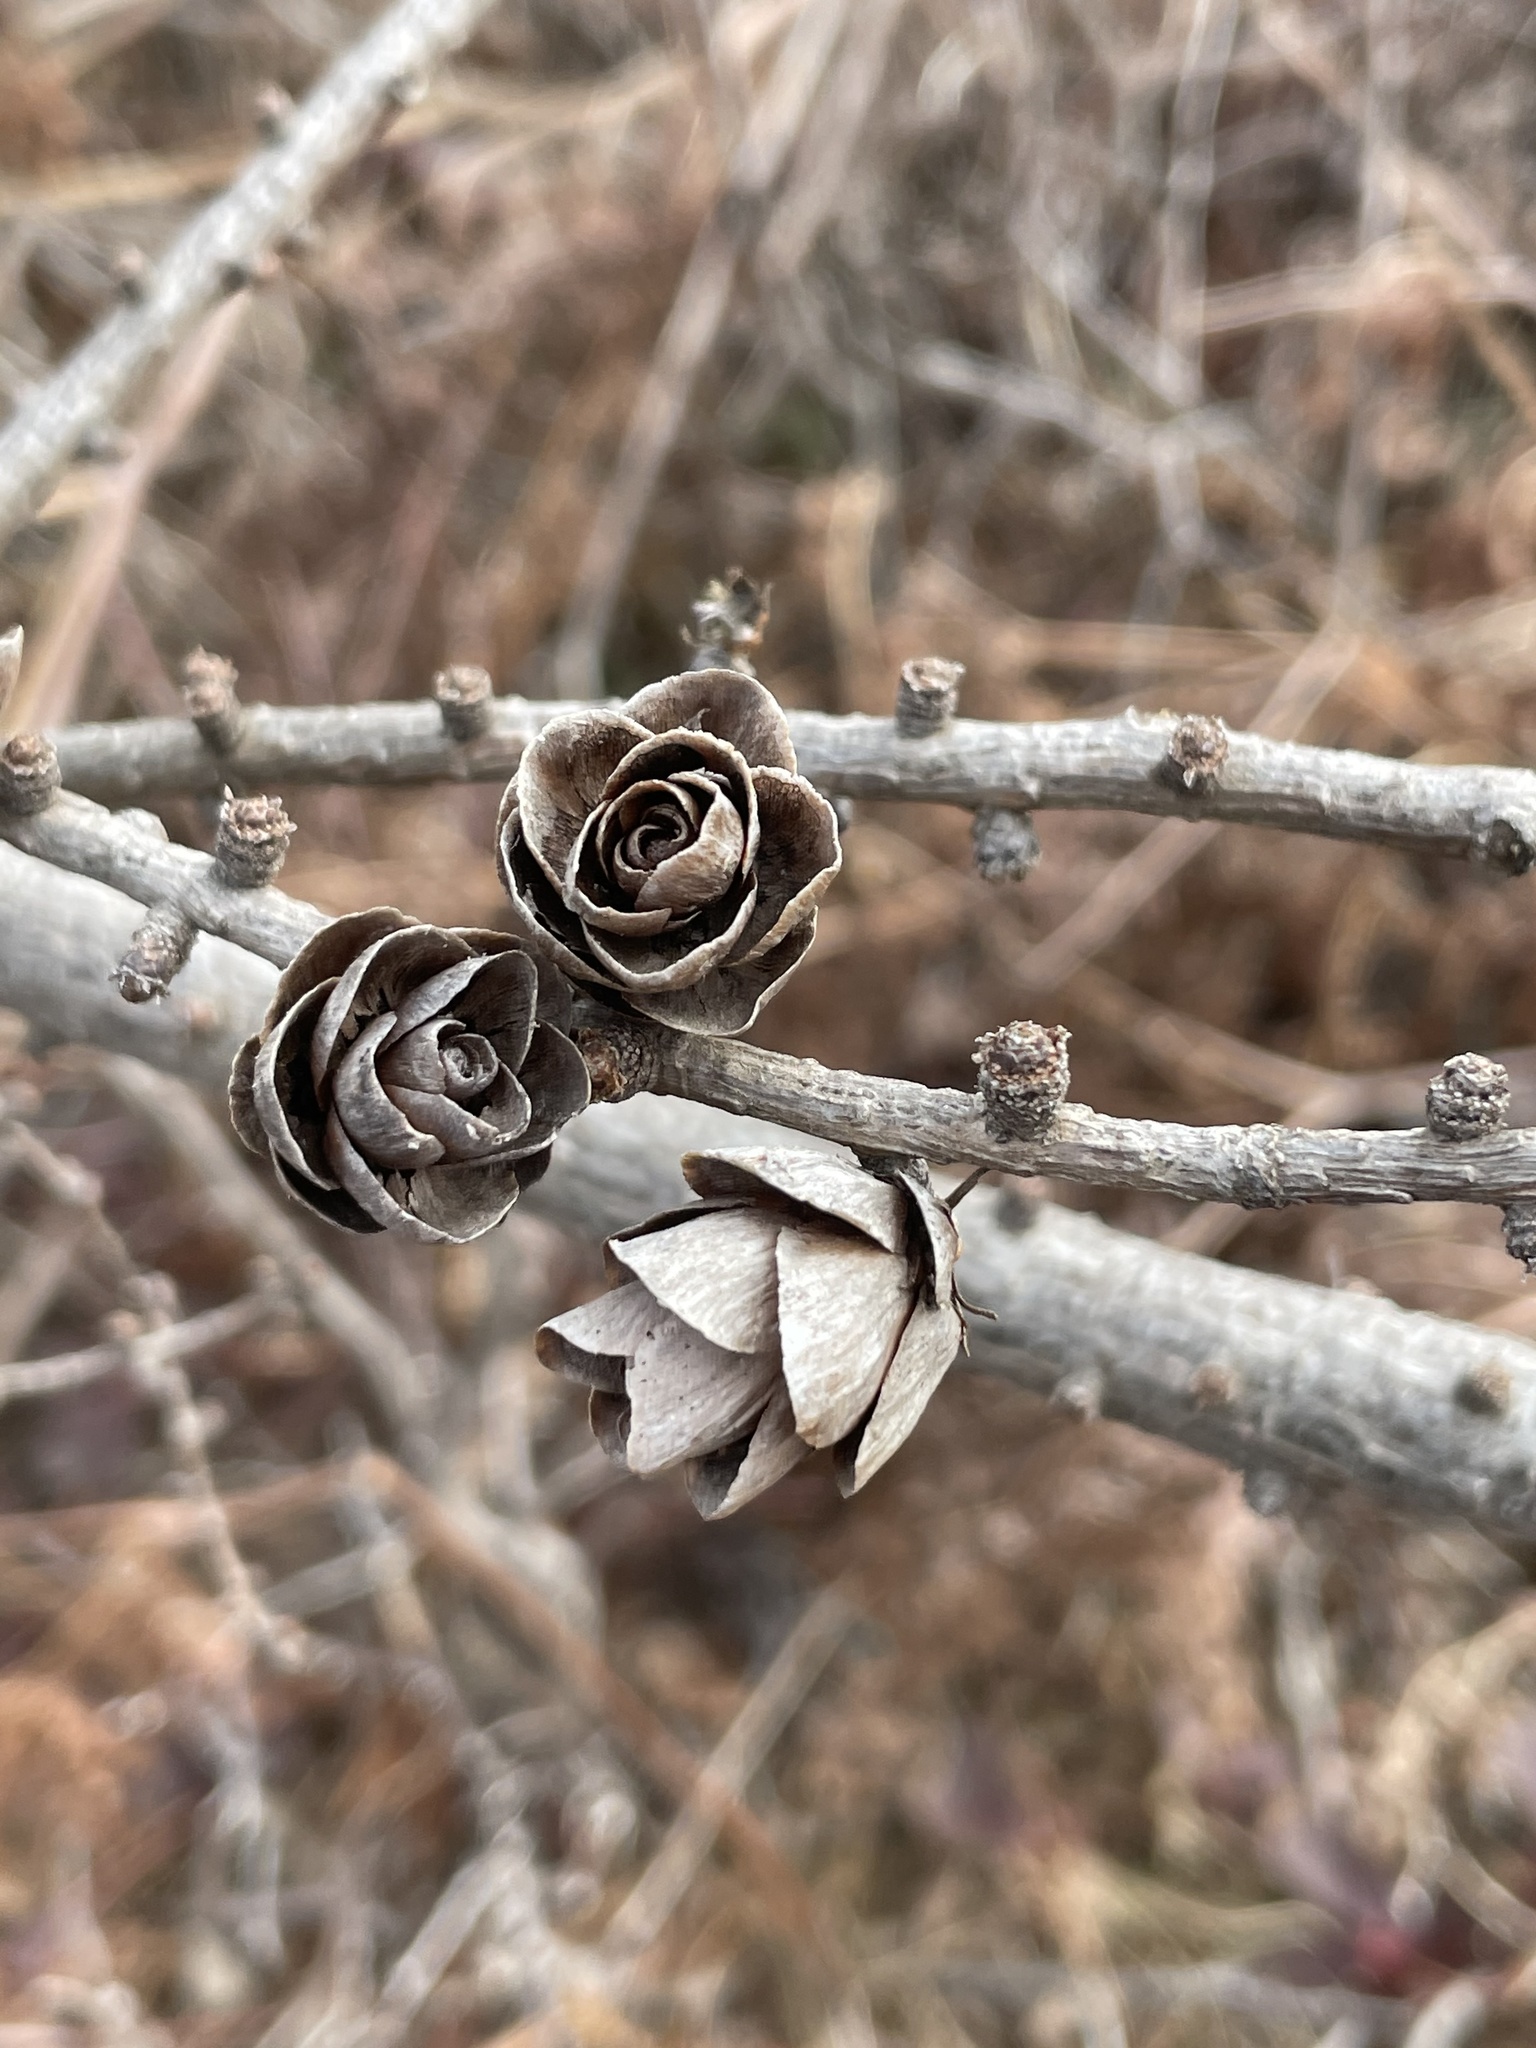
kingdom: Plantae
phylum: Tracheophyta
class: Pinopsida
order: Pinales
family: Pinaceae
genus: Larix
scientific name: Larix laricina
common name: American larch
